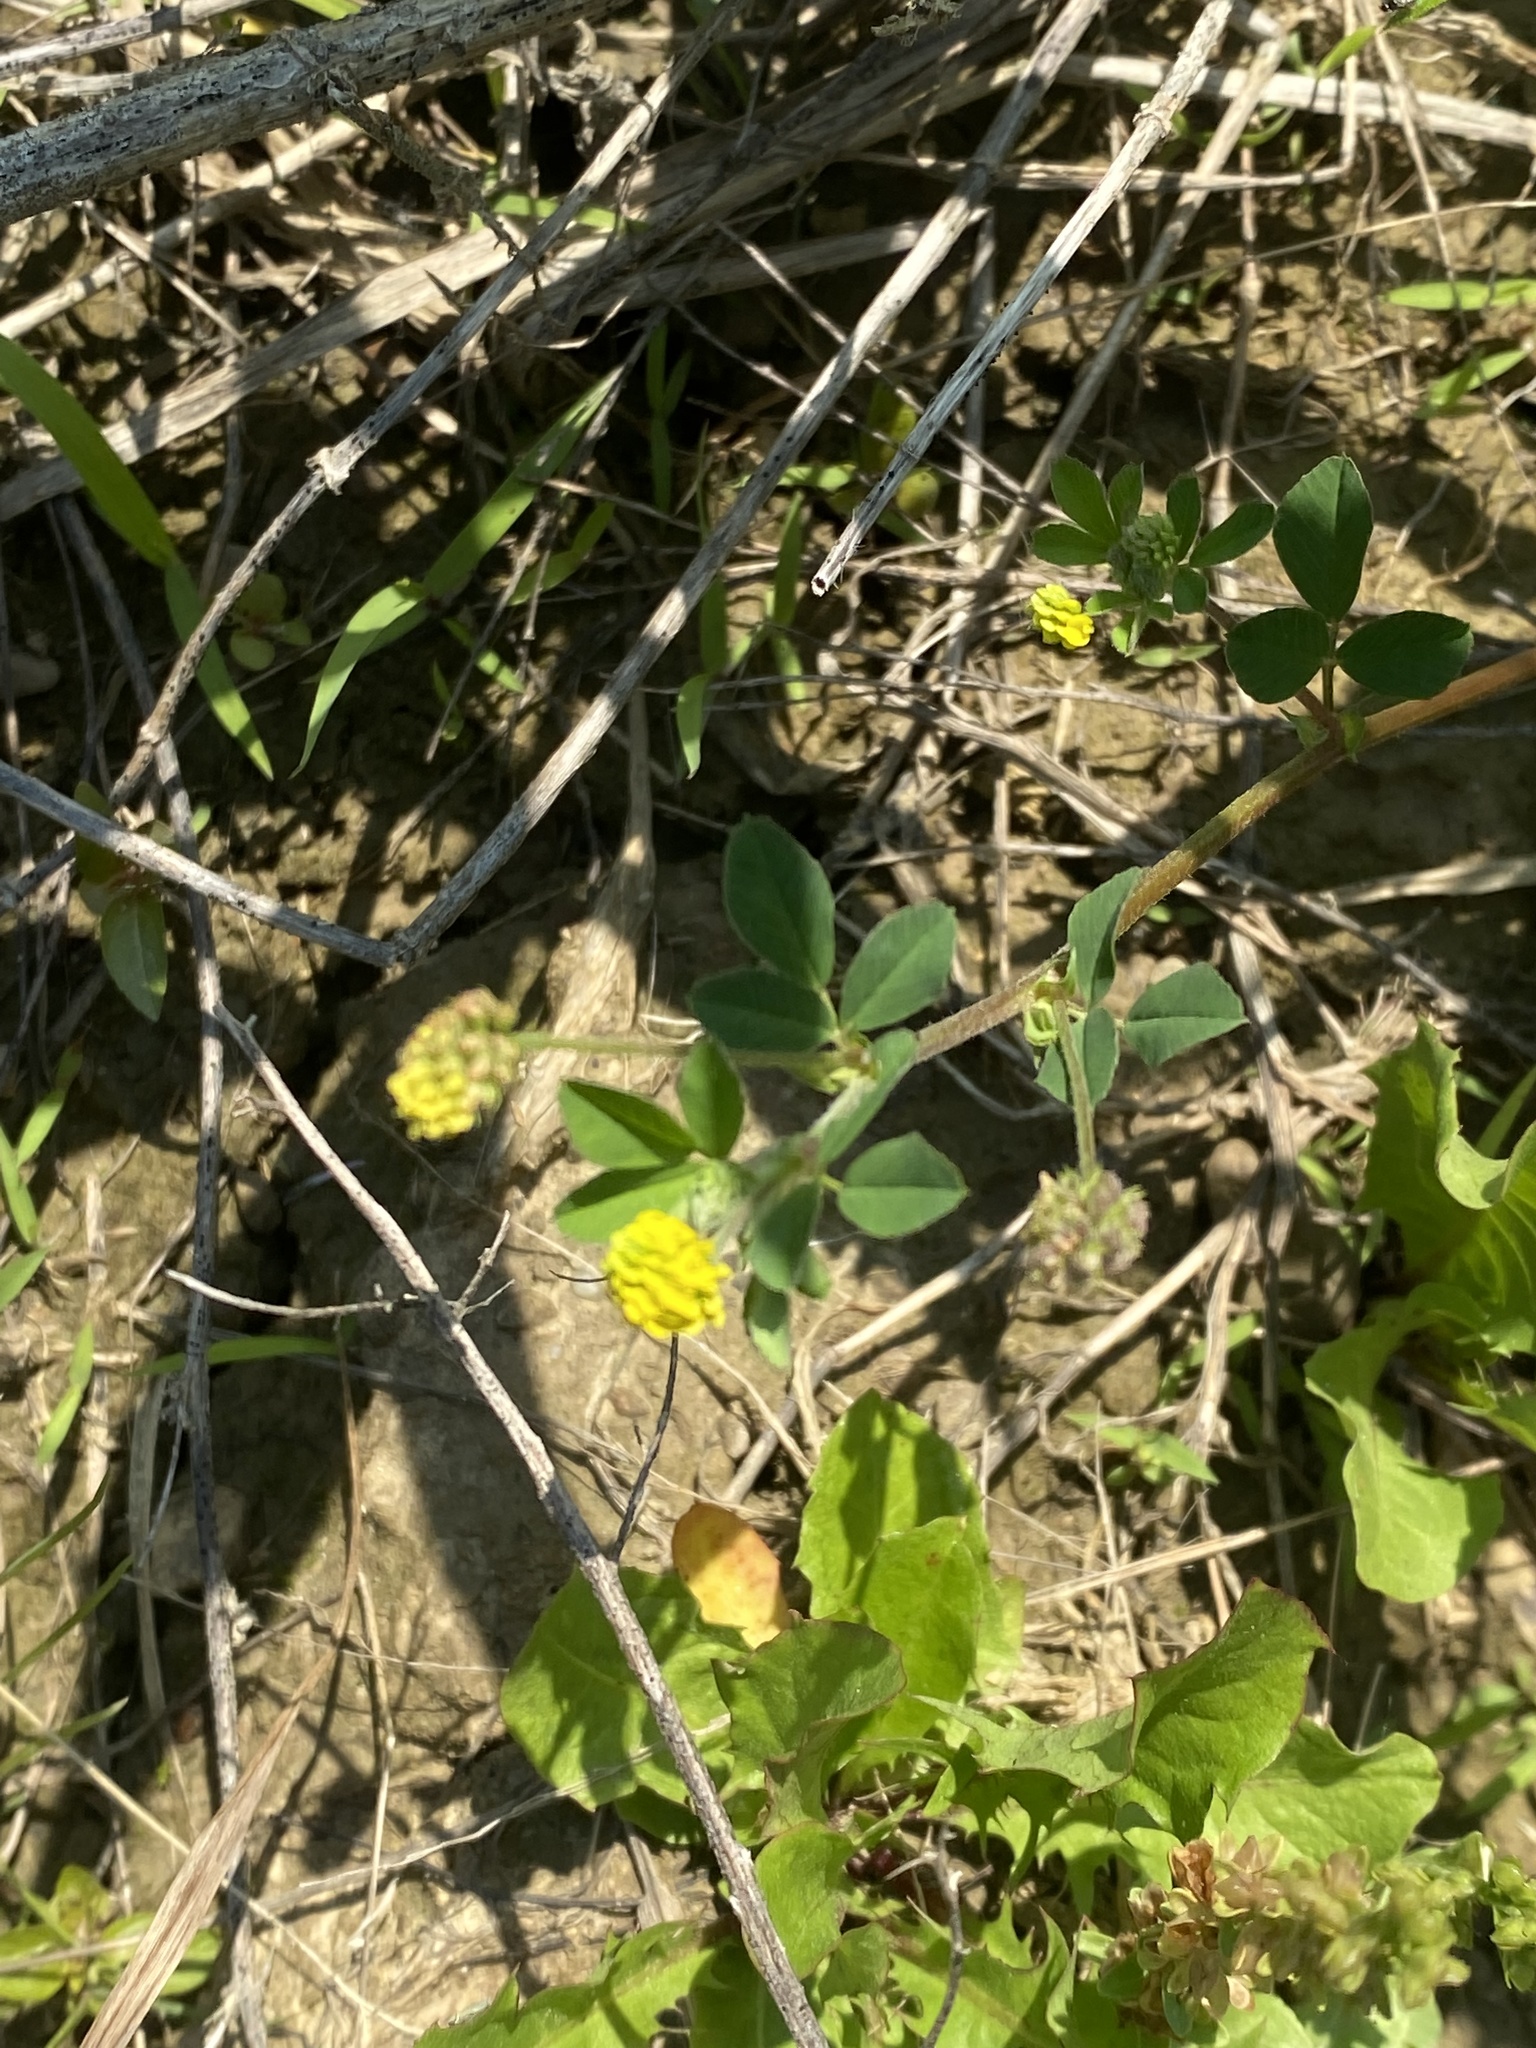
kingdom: Plantae
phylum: Tracheophyta
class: Magnoliopsida
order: Fabales
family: Fabaceae
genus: Medicago
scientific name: Medicago lupulina
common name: Black medick
